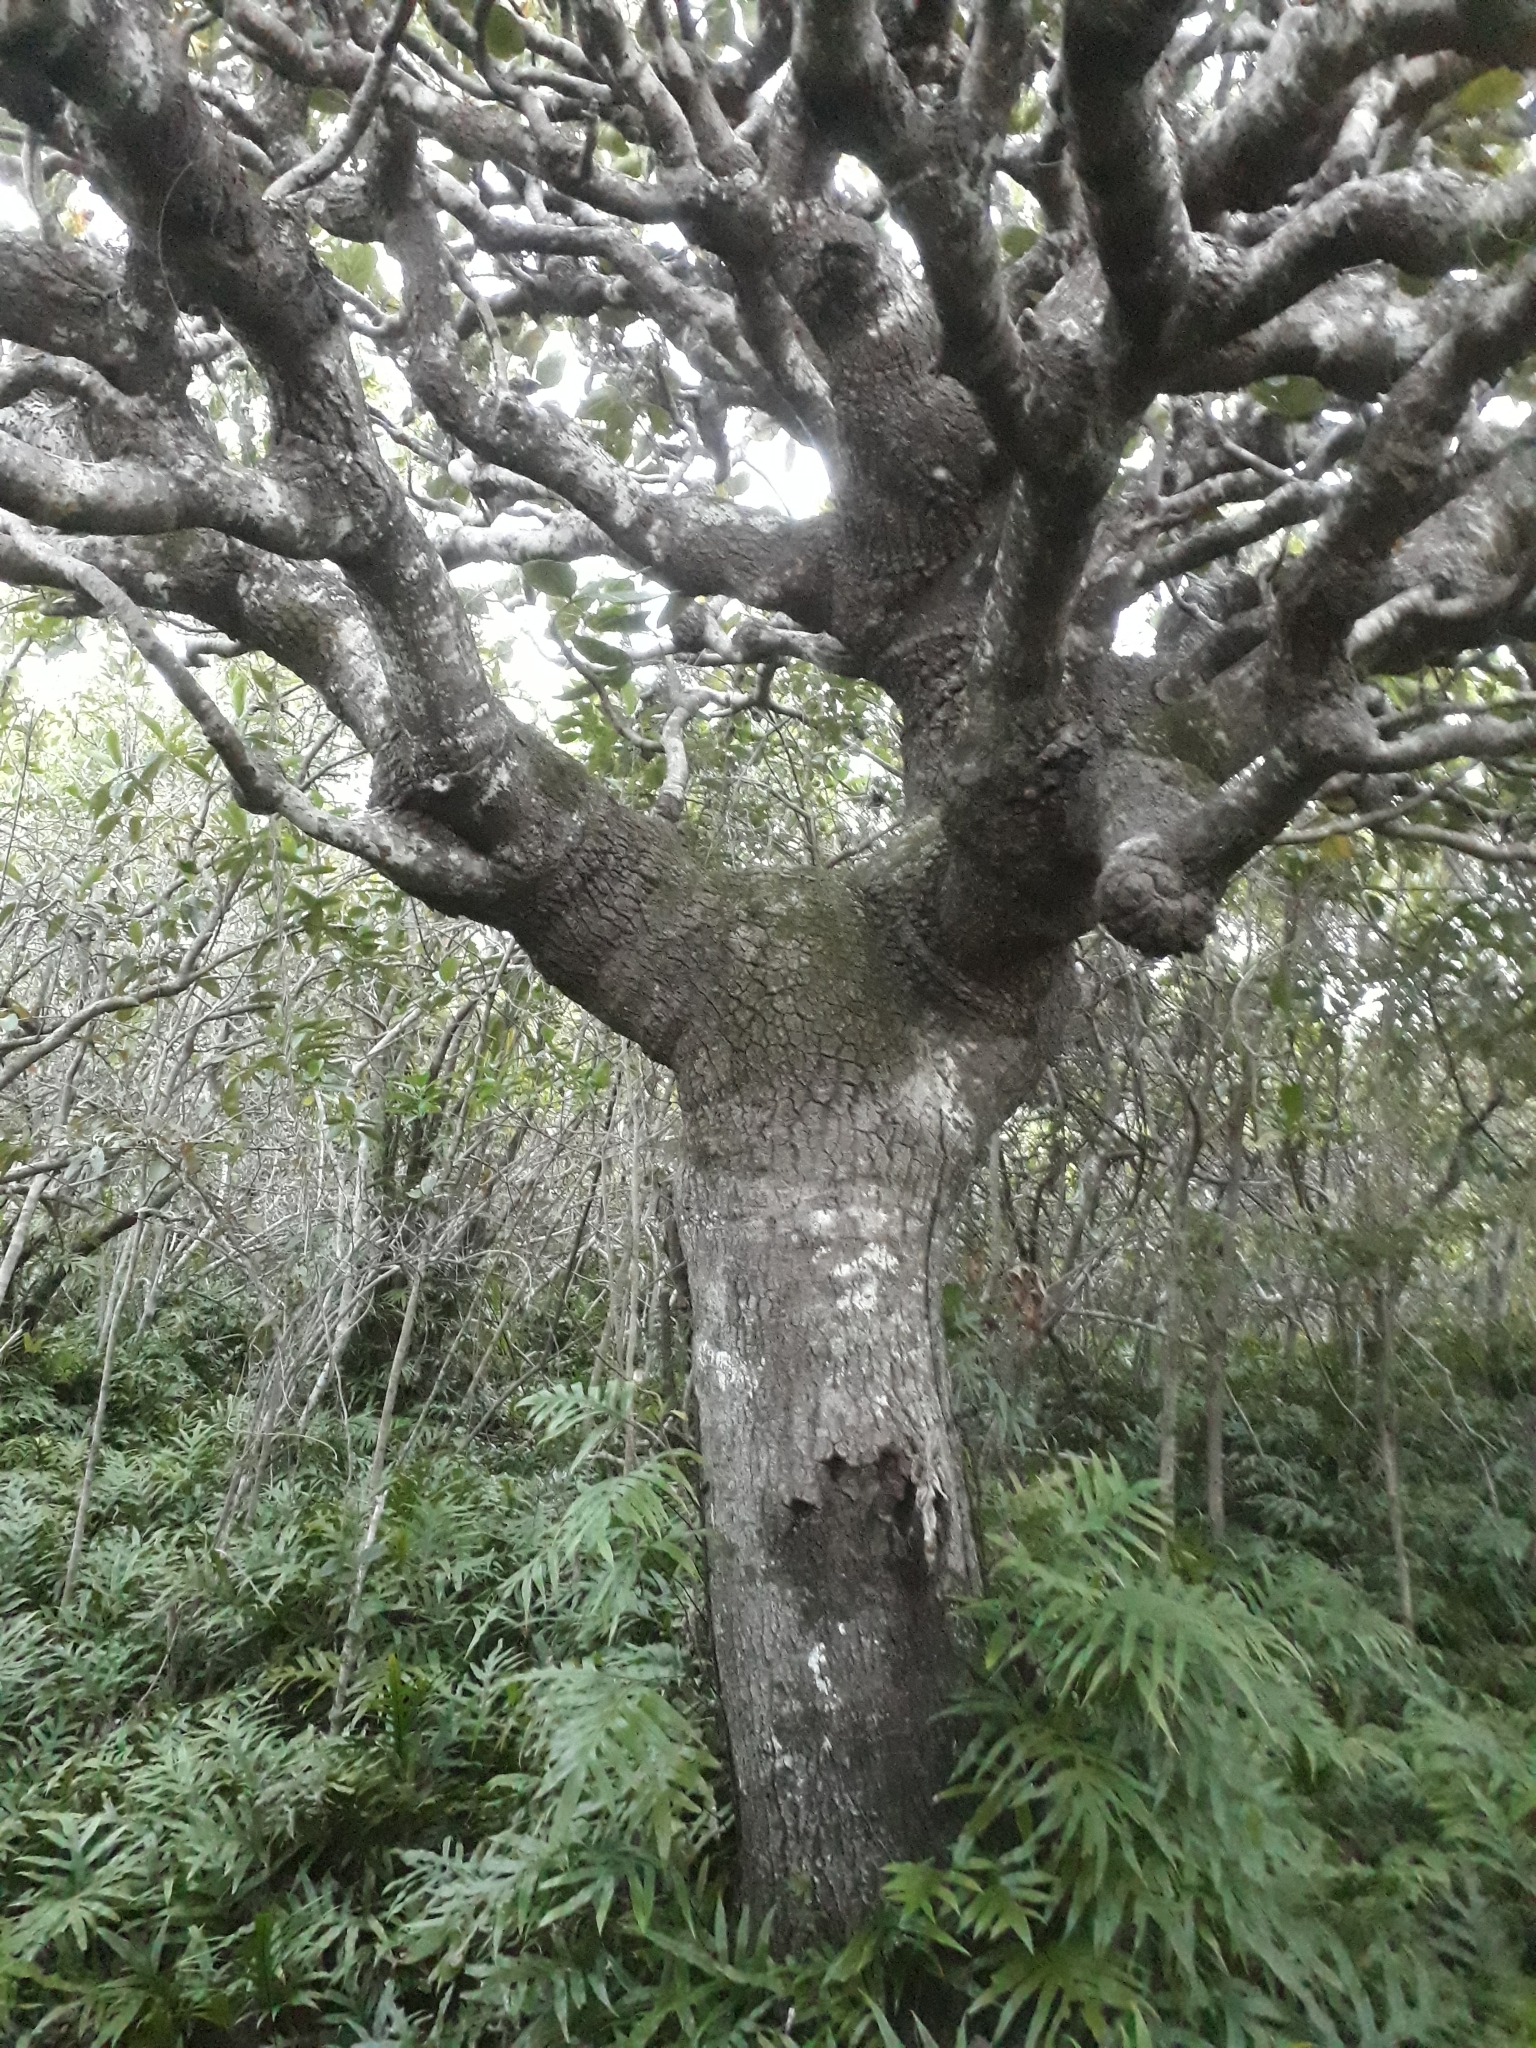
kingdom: Plantae
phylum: Tracheophyta
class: Magnoliopsida
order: Apiales
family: Araliaceae
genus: Polyscias
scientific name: Polyscias maraisiana
